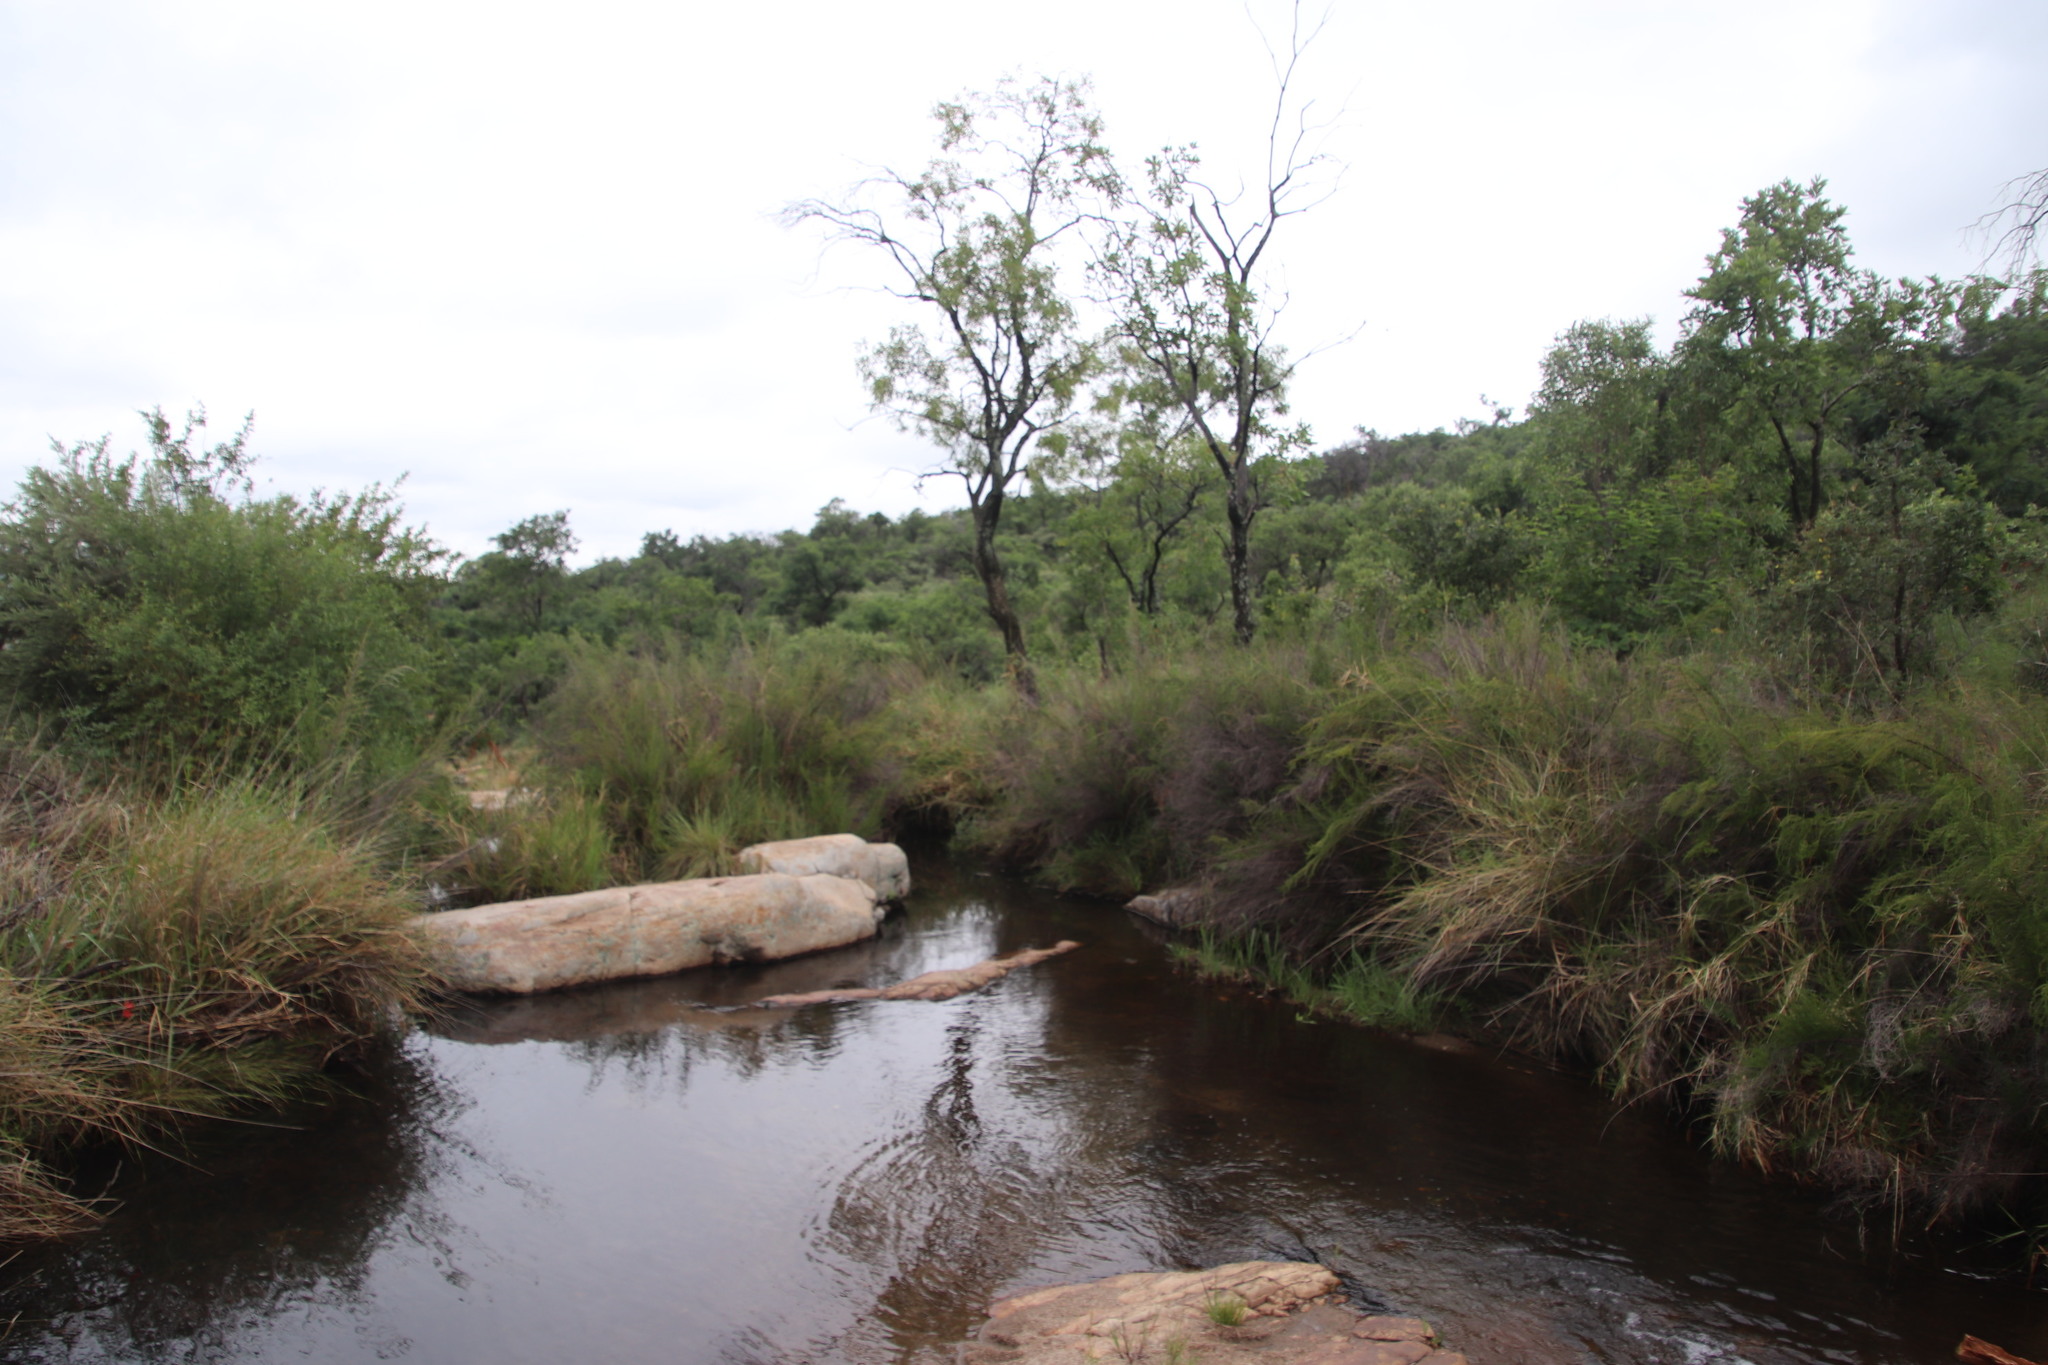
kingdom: Plantae
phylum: Tracheophyta
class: Magnoliopsida
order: Proteales
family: Proteaceae
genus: Faurea
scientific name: Faurea saligna
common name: African bean
